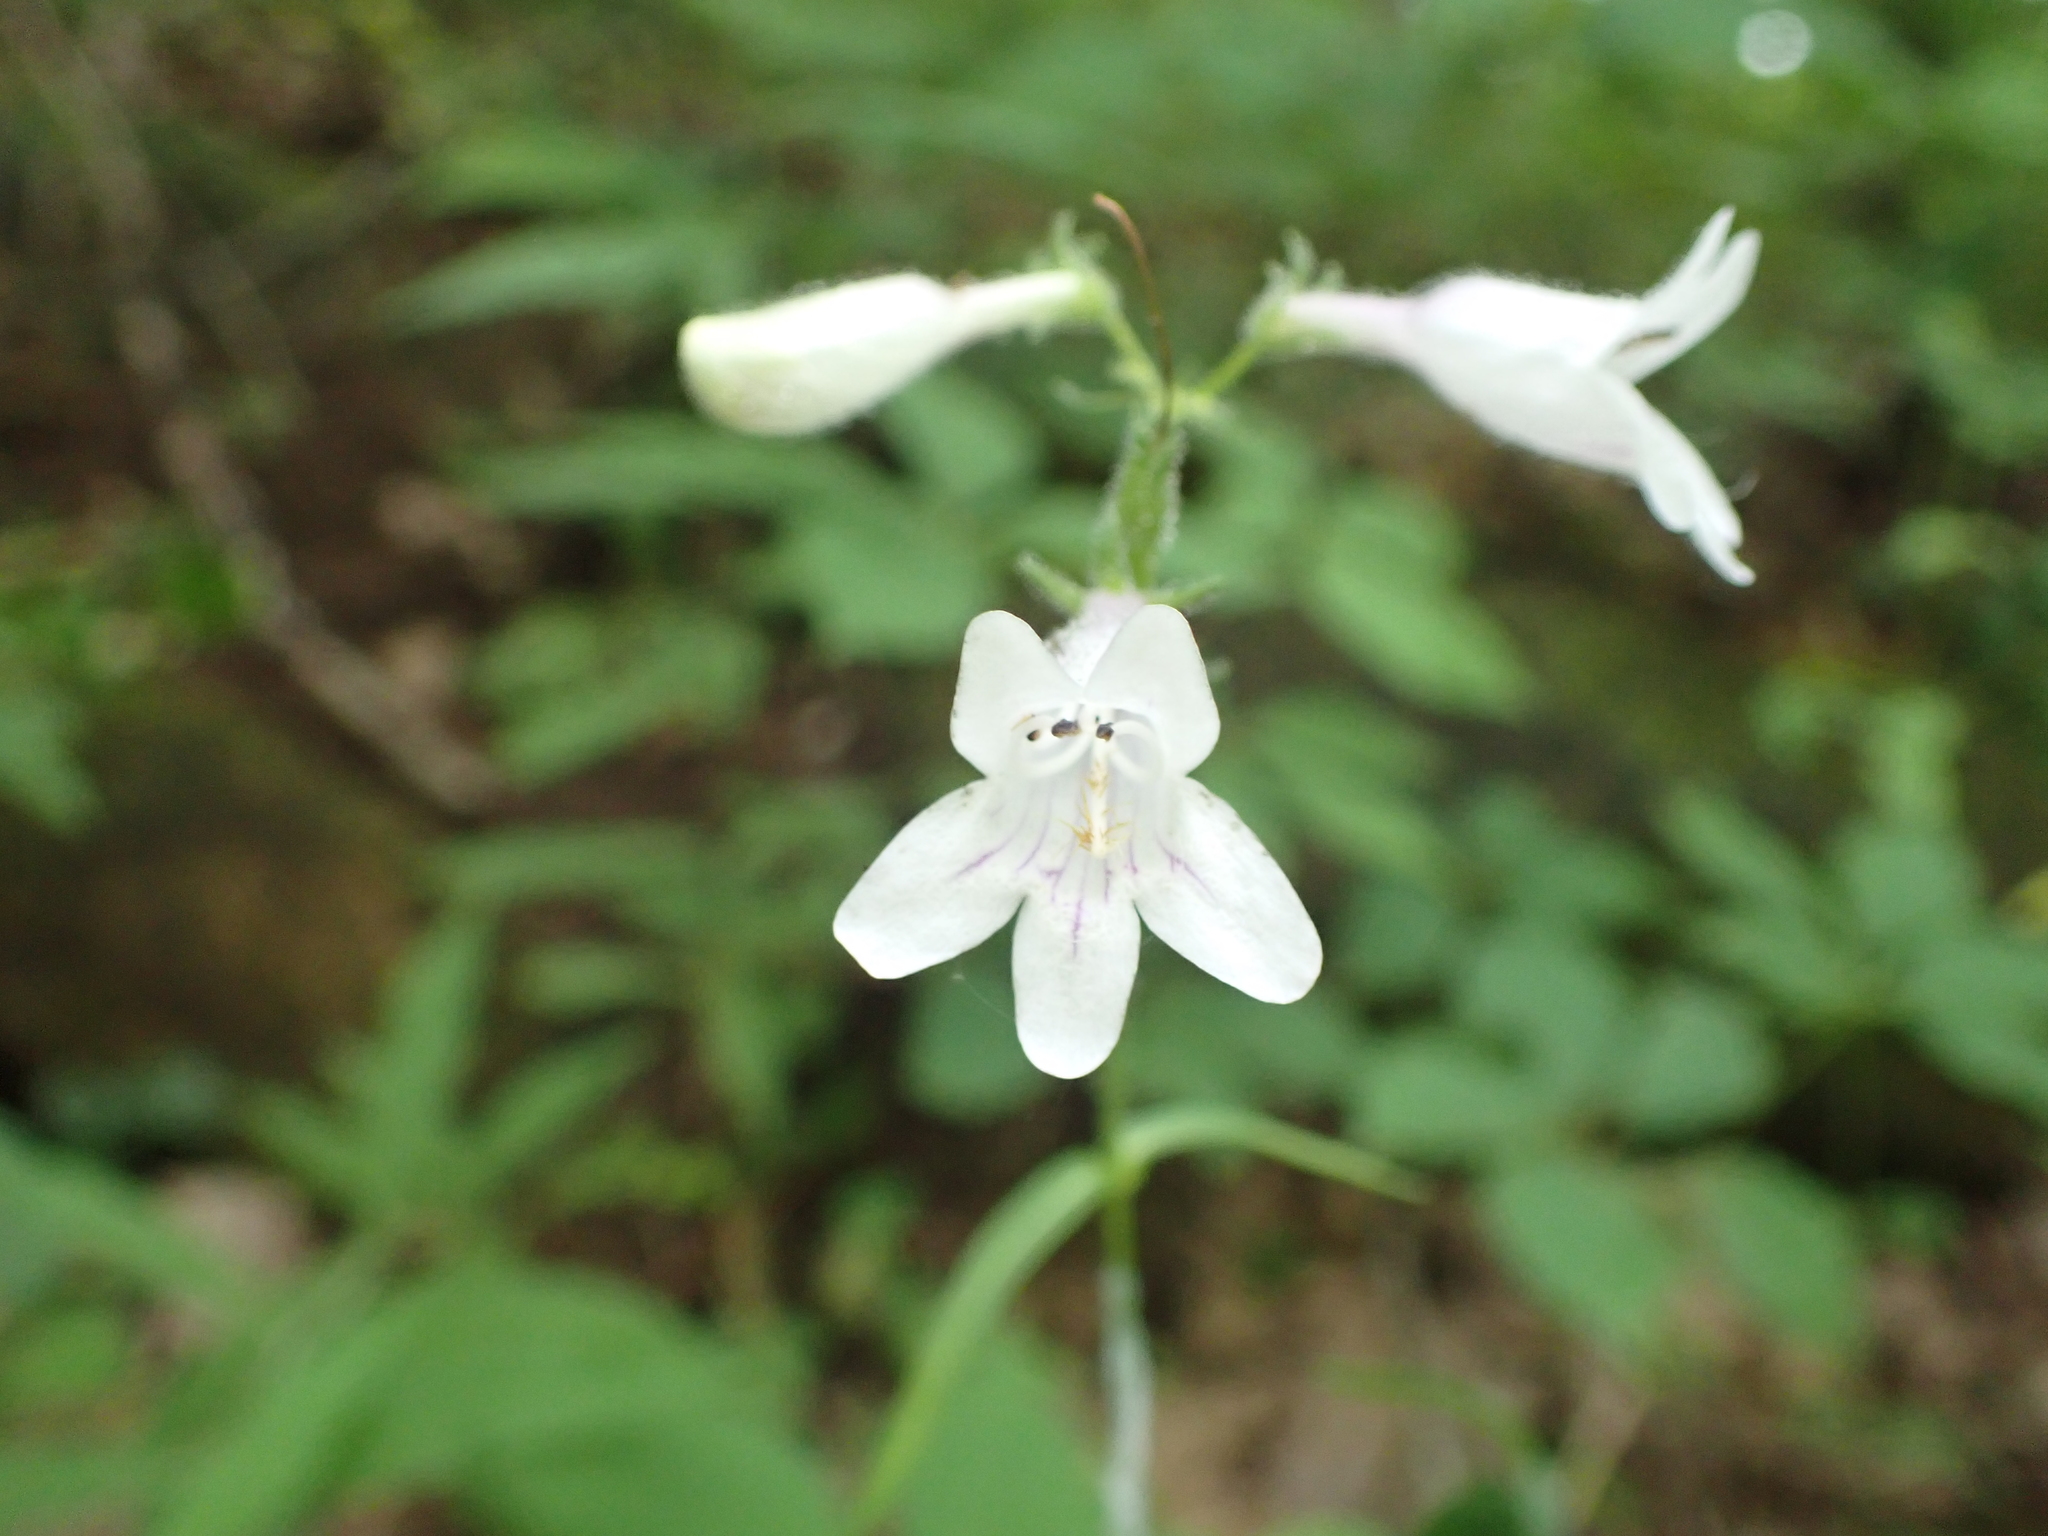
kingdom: Plantae
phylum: Tracheophyta
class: Magnoliopsida
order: Lamiales
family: Plantaginaceae
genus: Penstemon
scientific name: Penstemon digitalis
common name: Foxglove beardtongue
